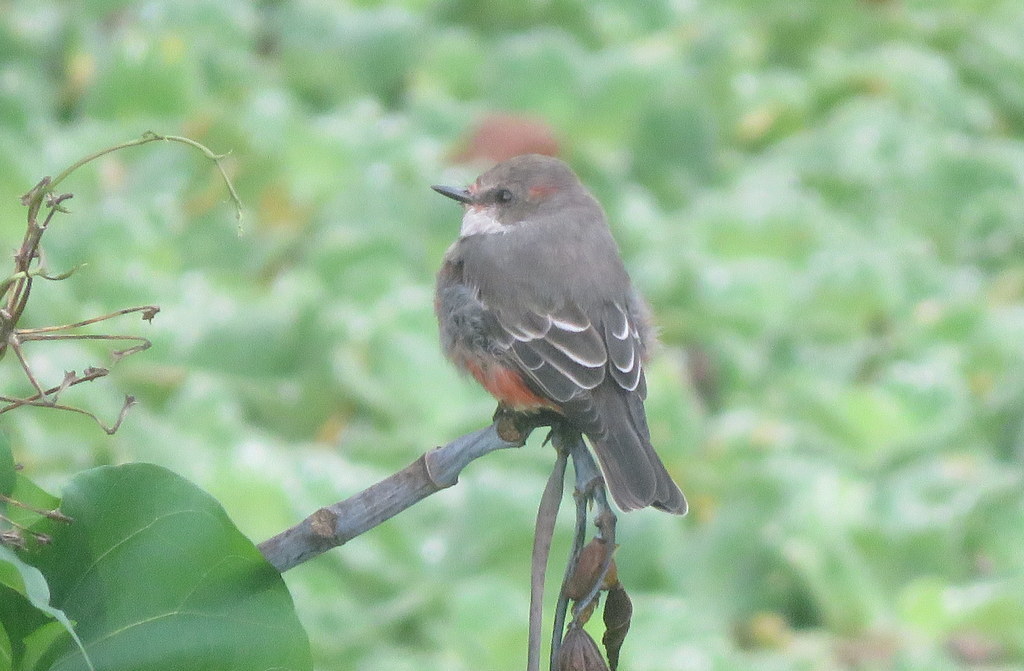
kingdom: Animalia
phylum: Chordata
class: Aves
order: Passeriformes
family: Tyrannidae
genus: Pyrocephalus
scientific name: Pyrocephalus rubinus
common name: Vermilion flycatcher
